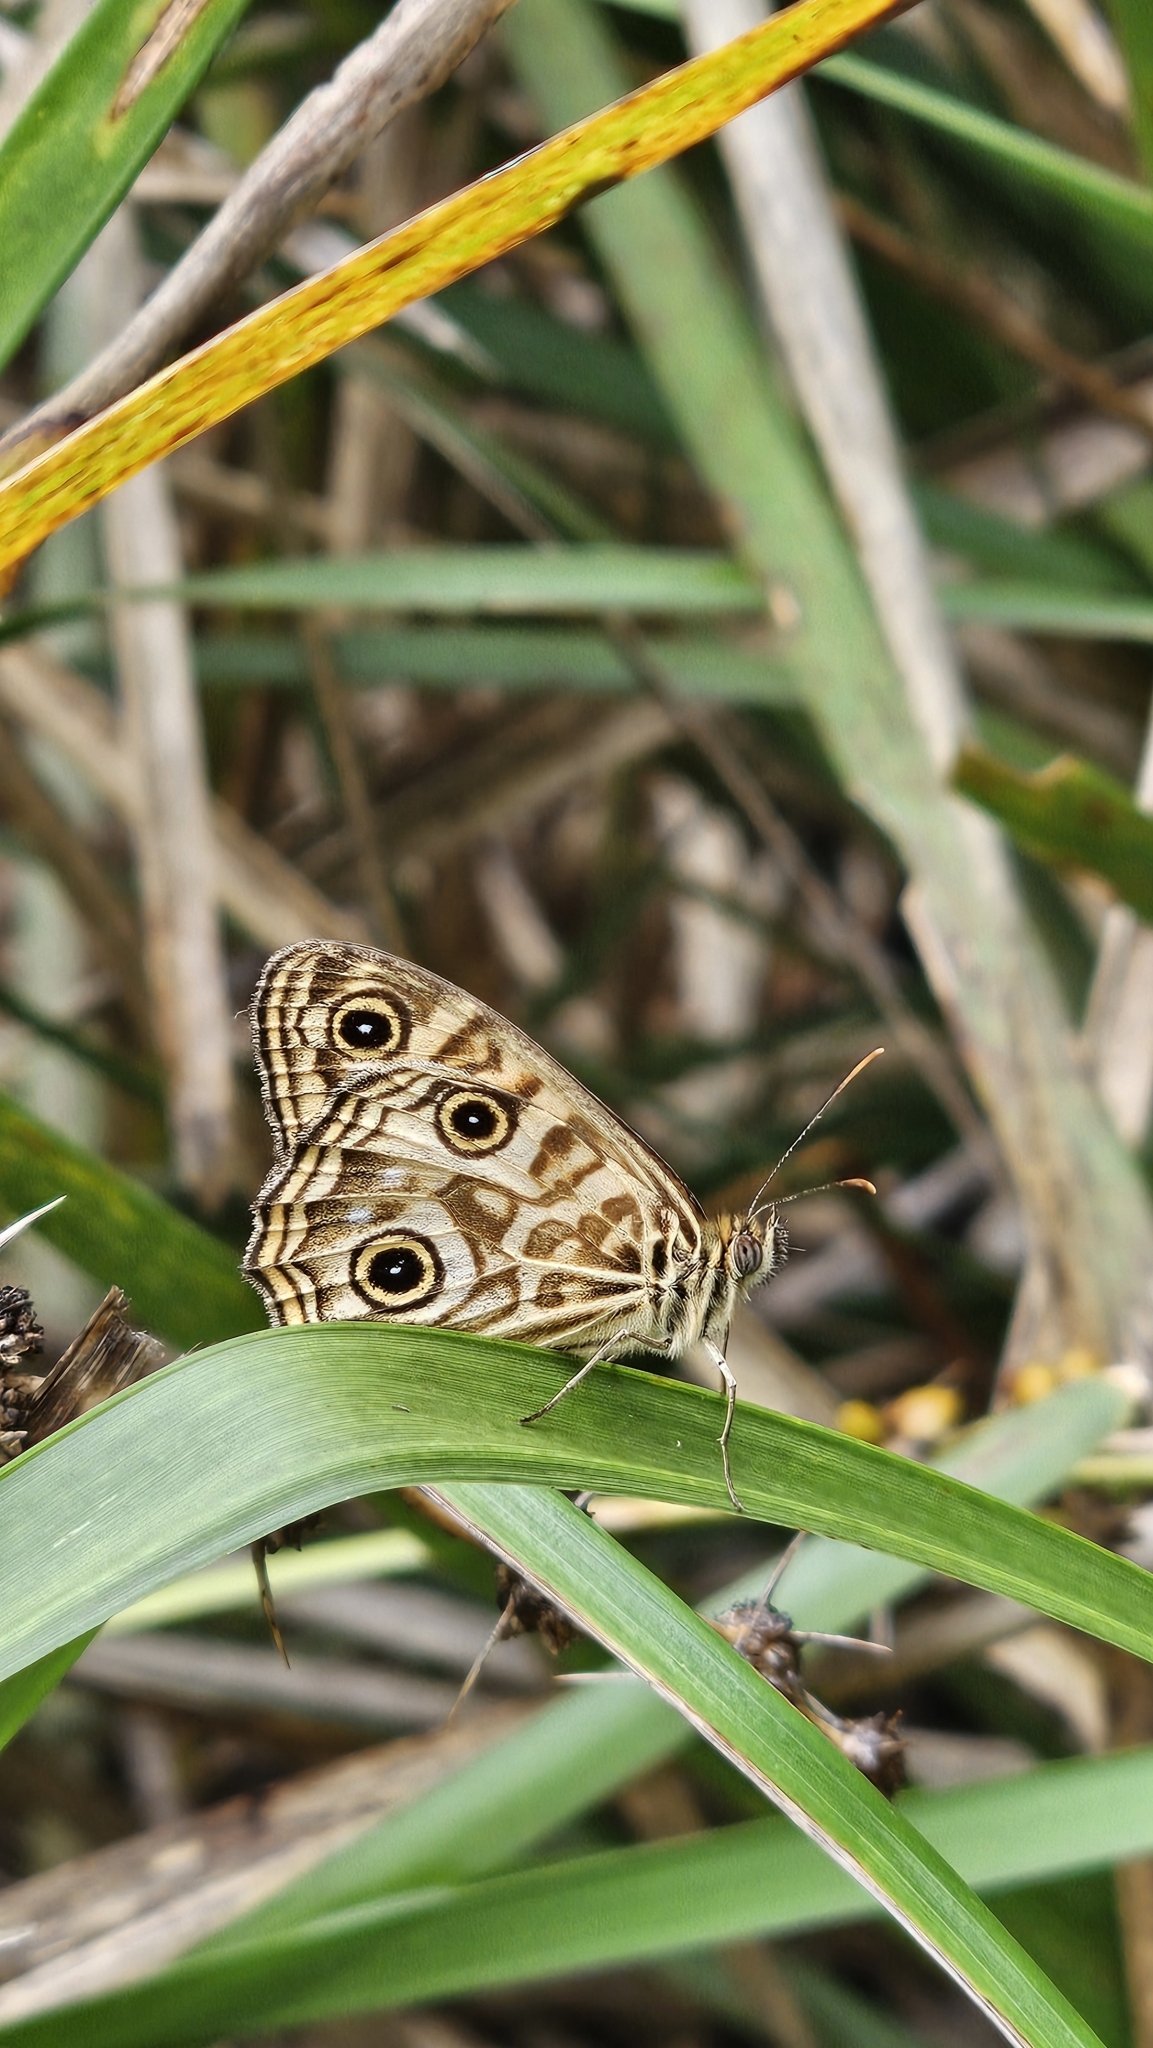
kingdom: Animalia
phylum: Arthropoda
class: Insecta
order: Lepidoptera
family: Nymphalidae
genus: Geitoneura
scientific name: Geitoneura acantha
